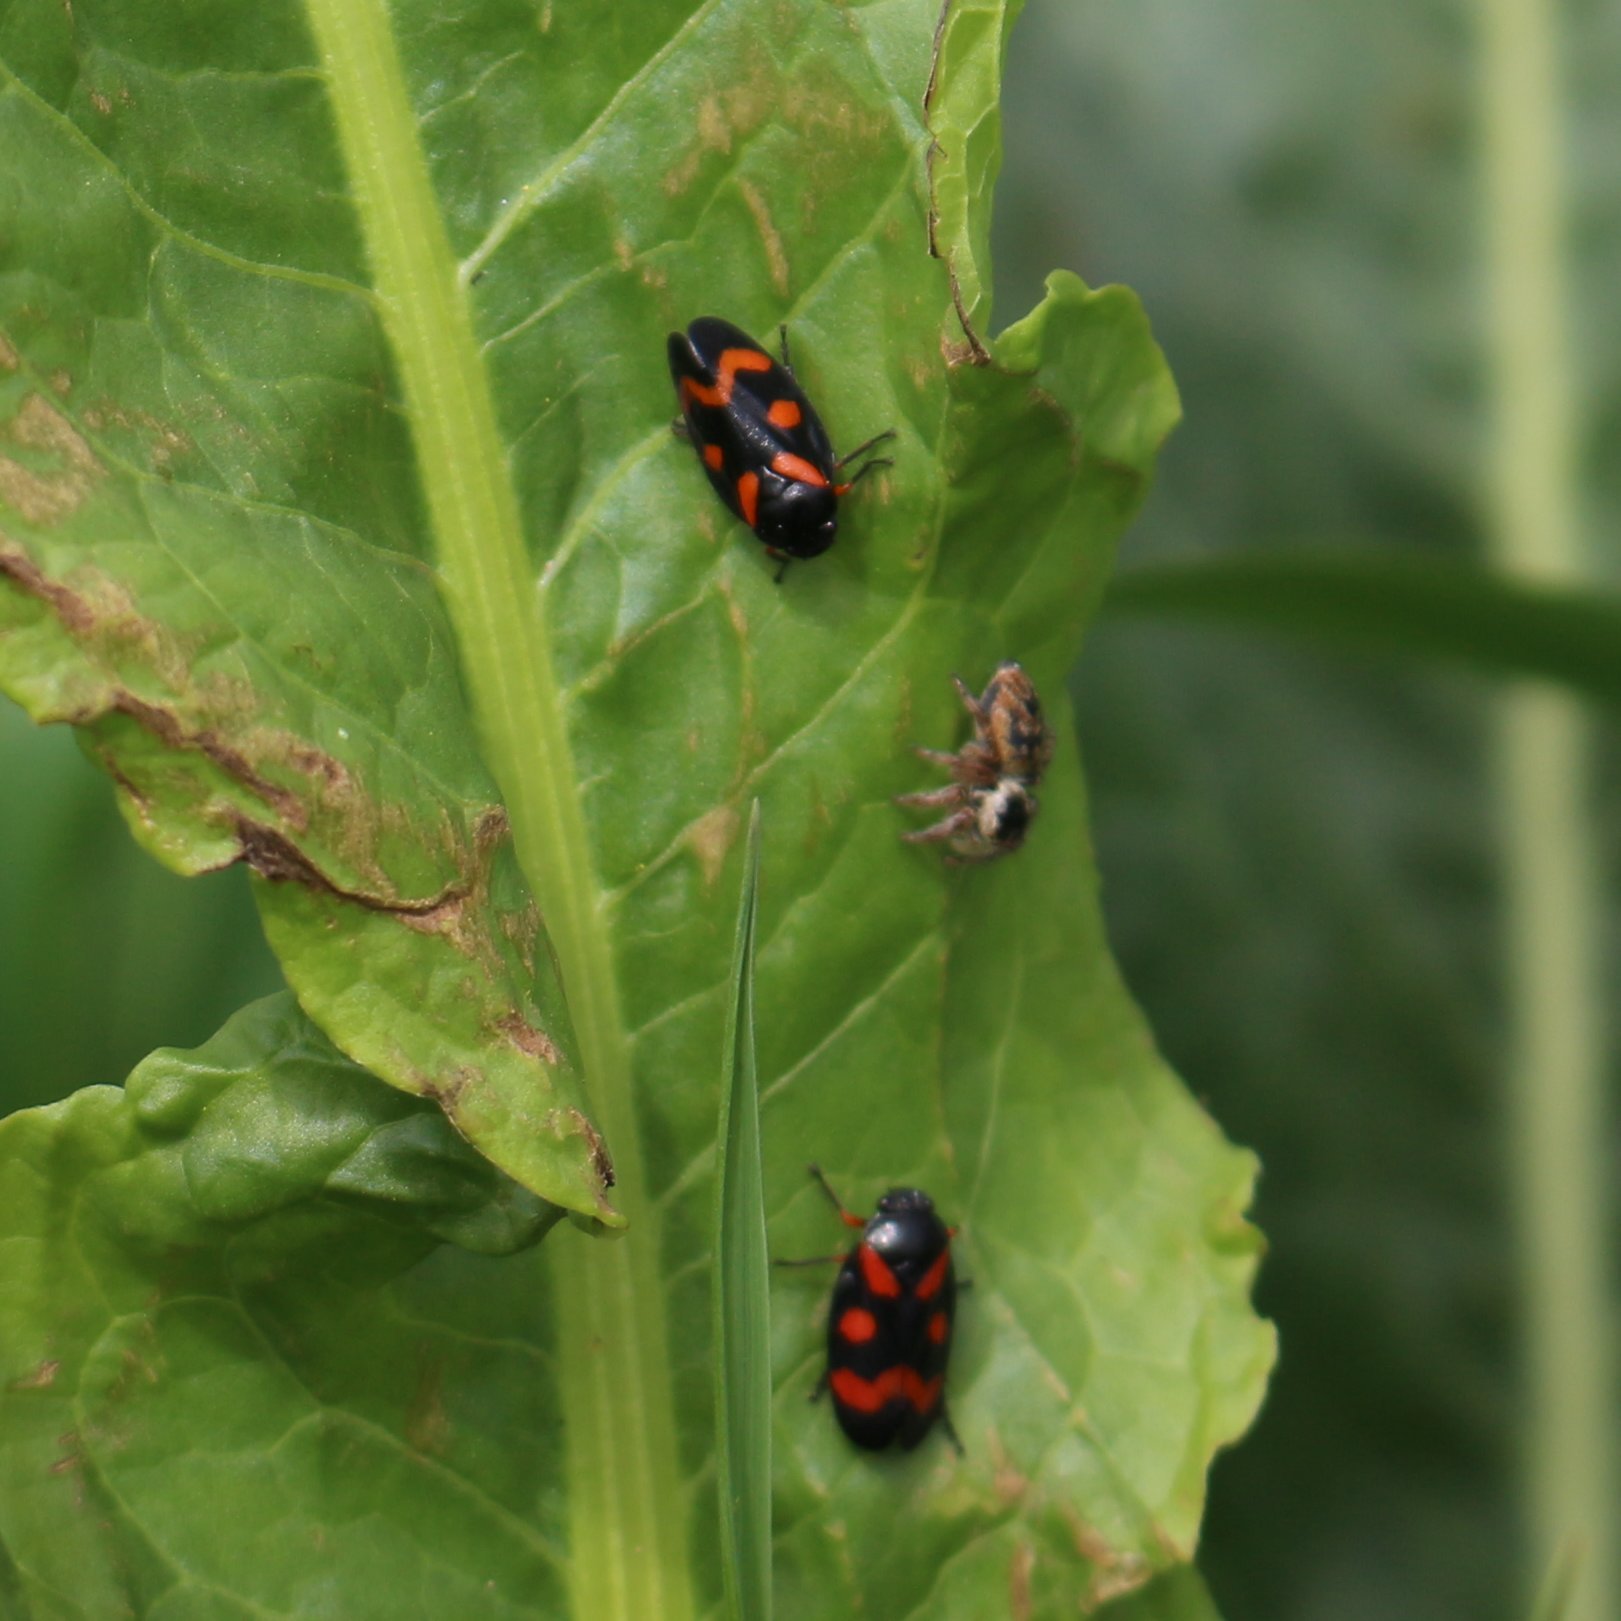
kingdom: Animalia
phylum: Arthropoda
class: Insecta
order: Hemiptera
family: Cercopidae
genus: Cercopis
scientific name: Cercopis intermedia
